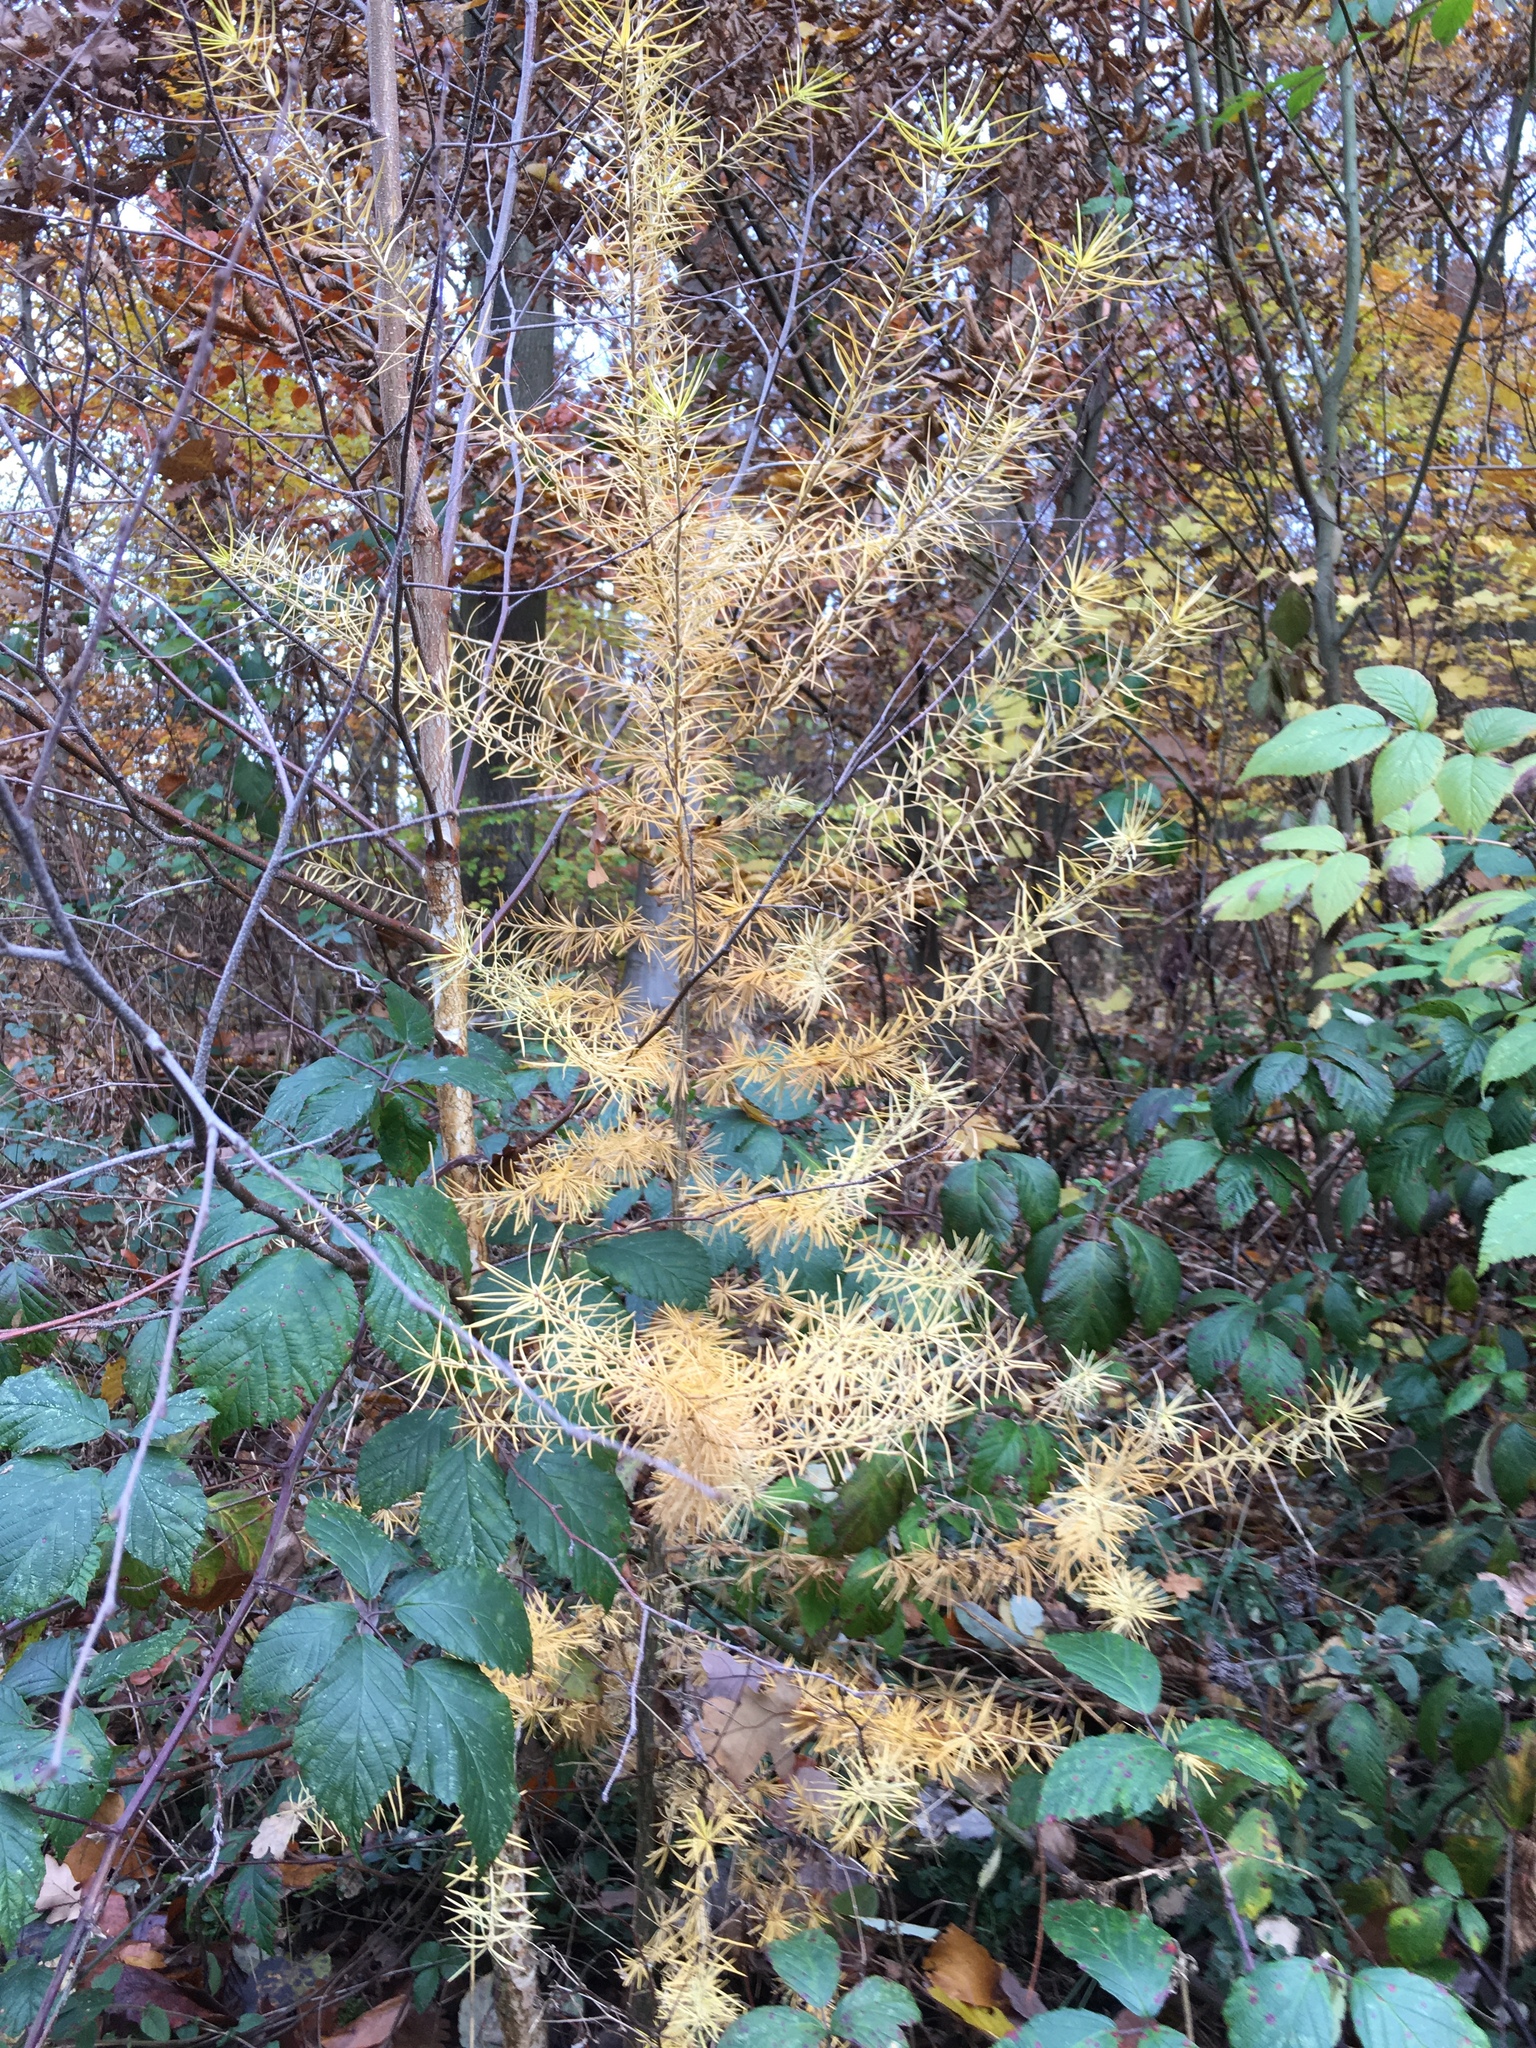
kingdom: Plantae
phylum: Tracheophyta
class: Pinopsida
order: Pinales
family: Pinaceae
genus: Larix
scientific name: Larix decidua
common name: European larch
